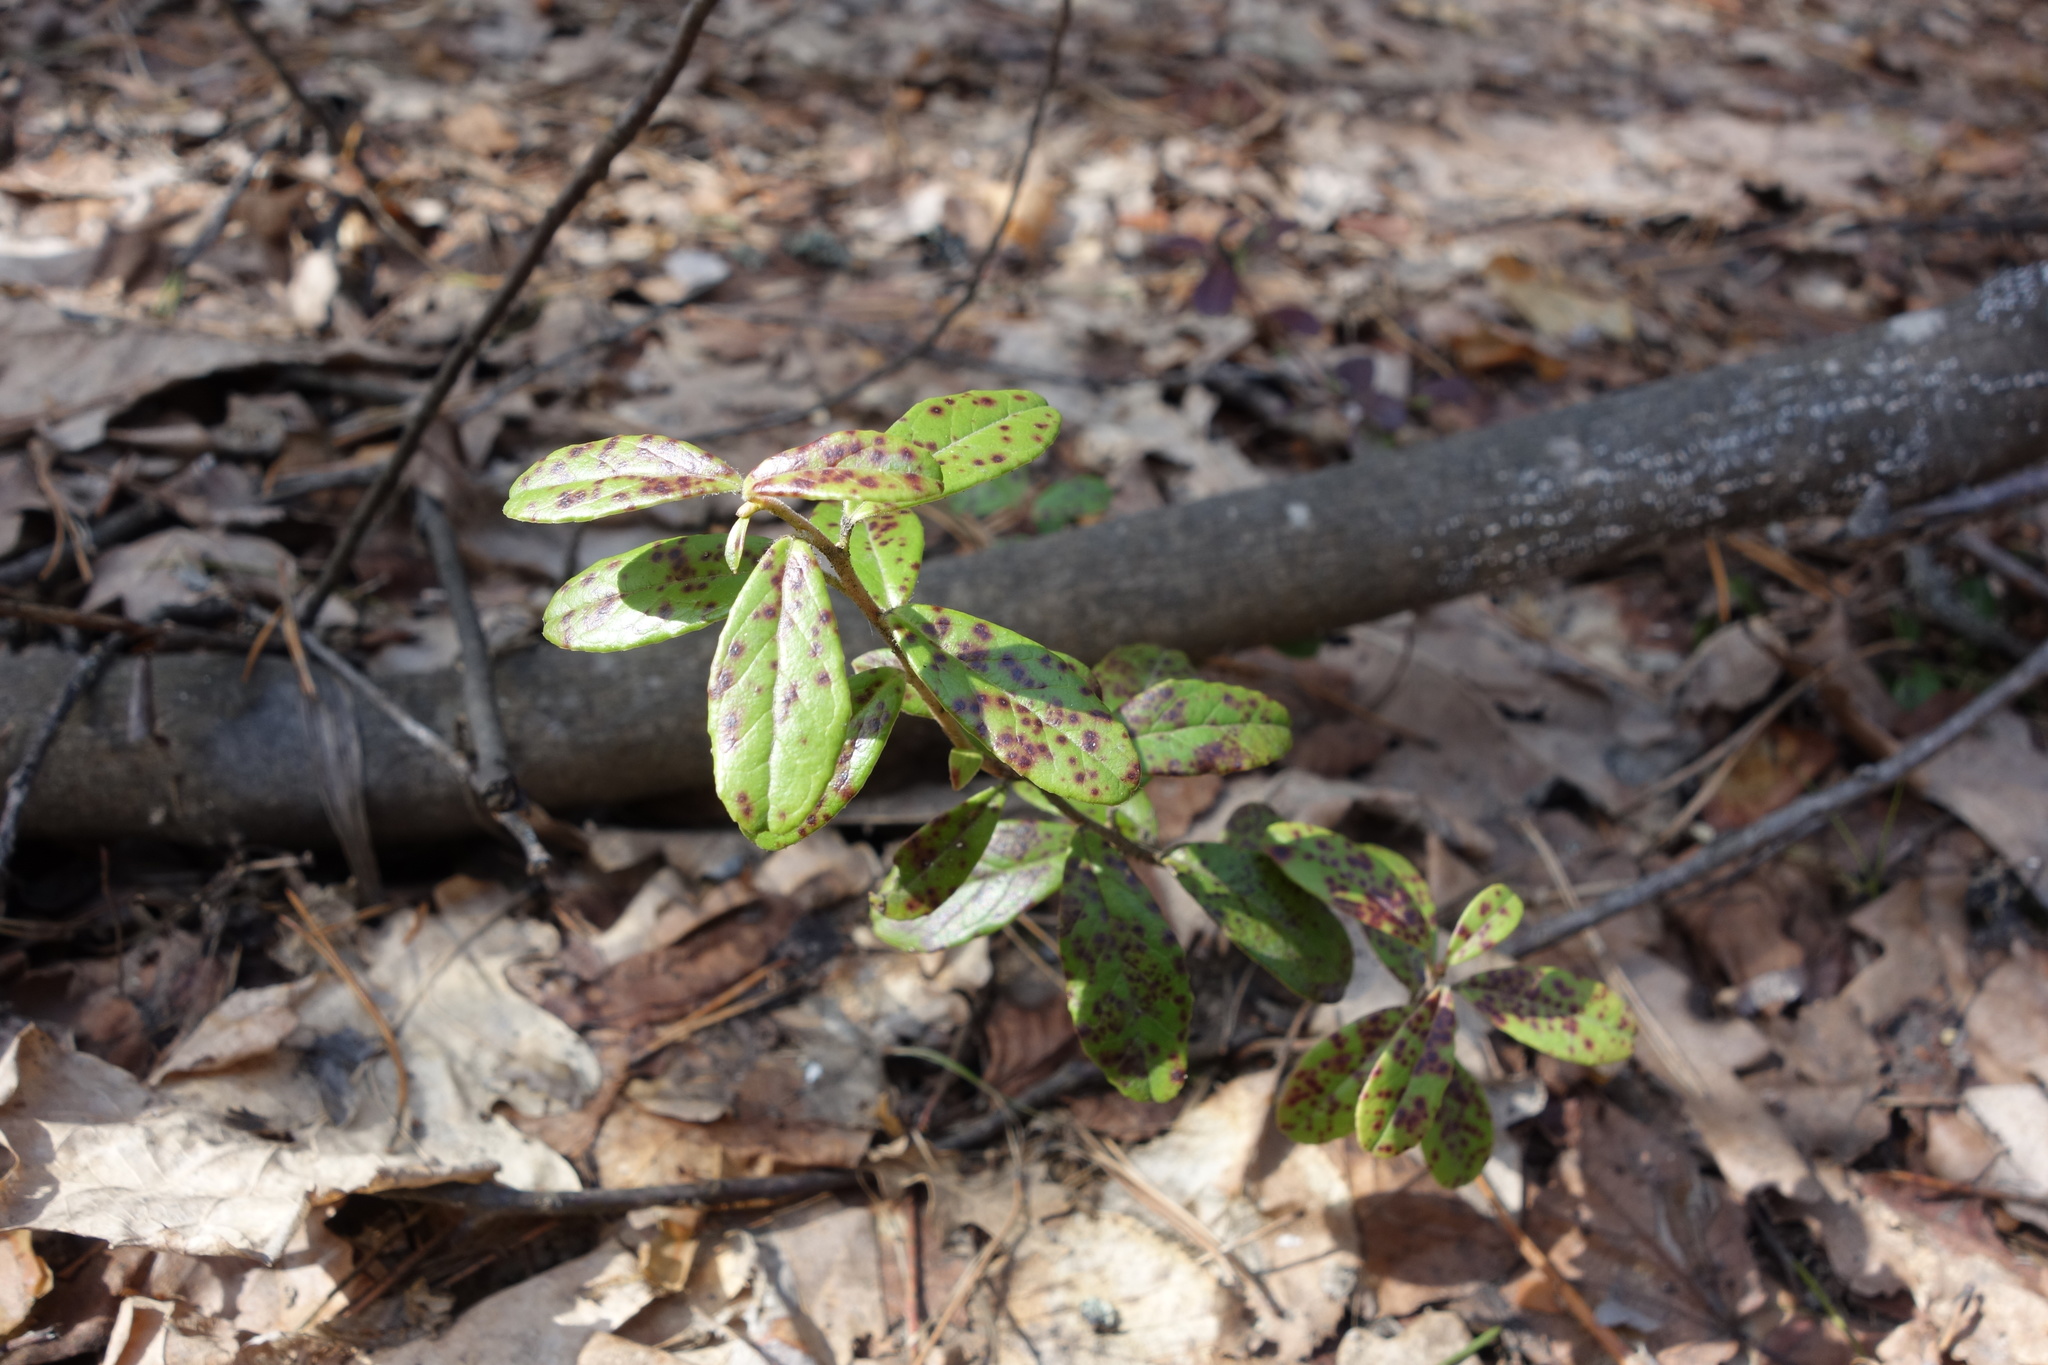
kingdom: Plantae
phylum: Tracheophyta
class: Magnoliopsida
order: Ericales
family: Ericaceae
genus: Vaccinium
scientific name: Vaccinium vitis-idaea
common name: Cowberry
